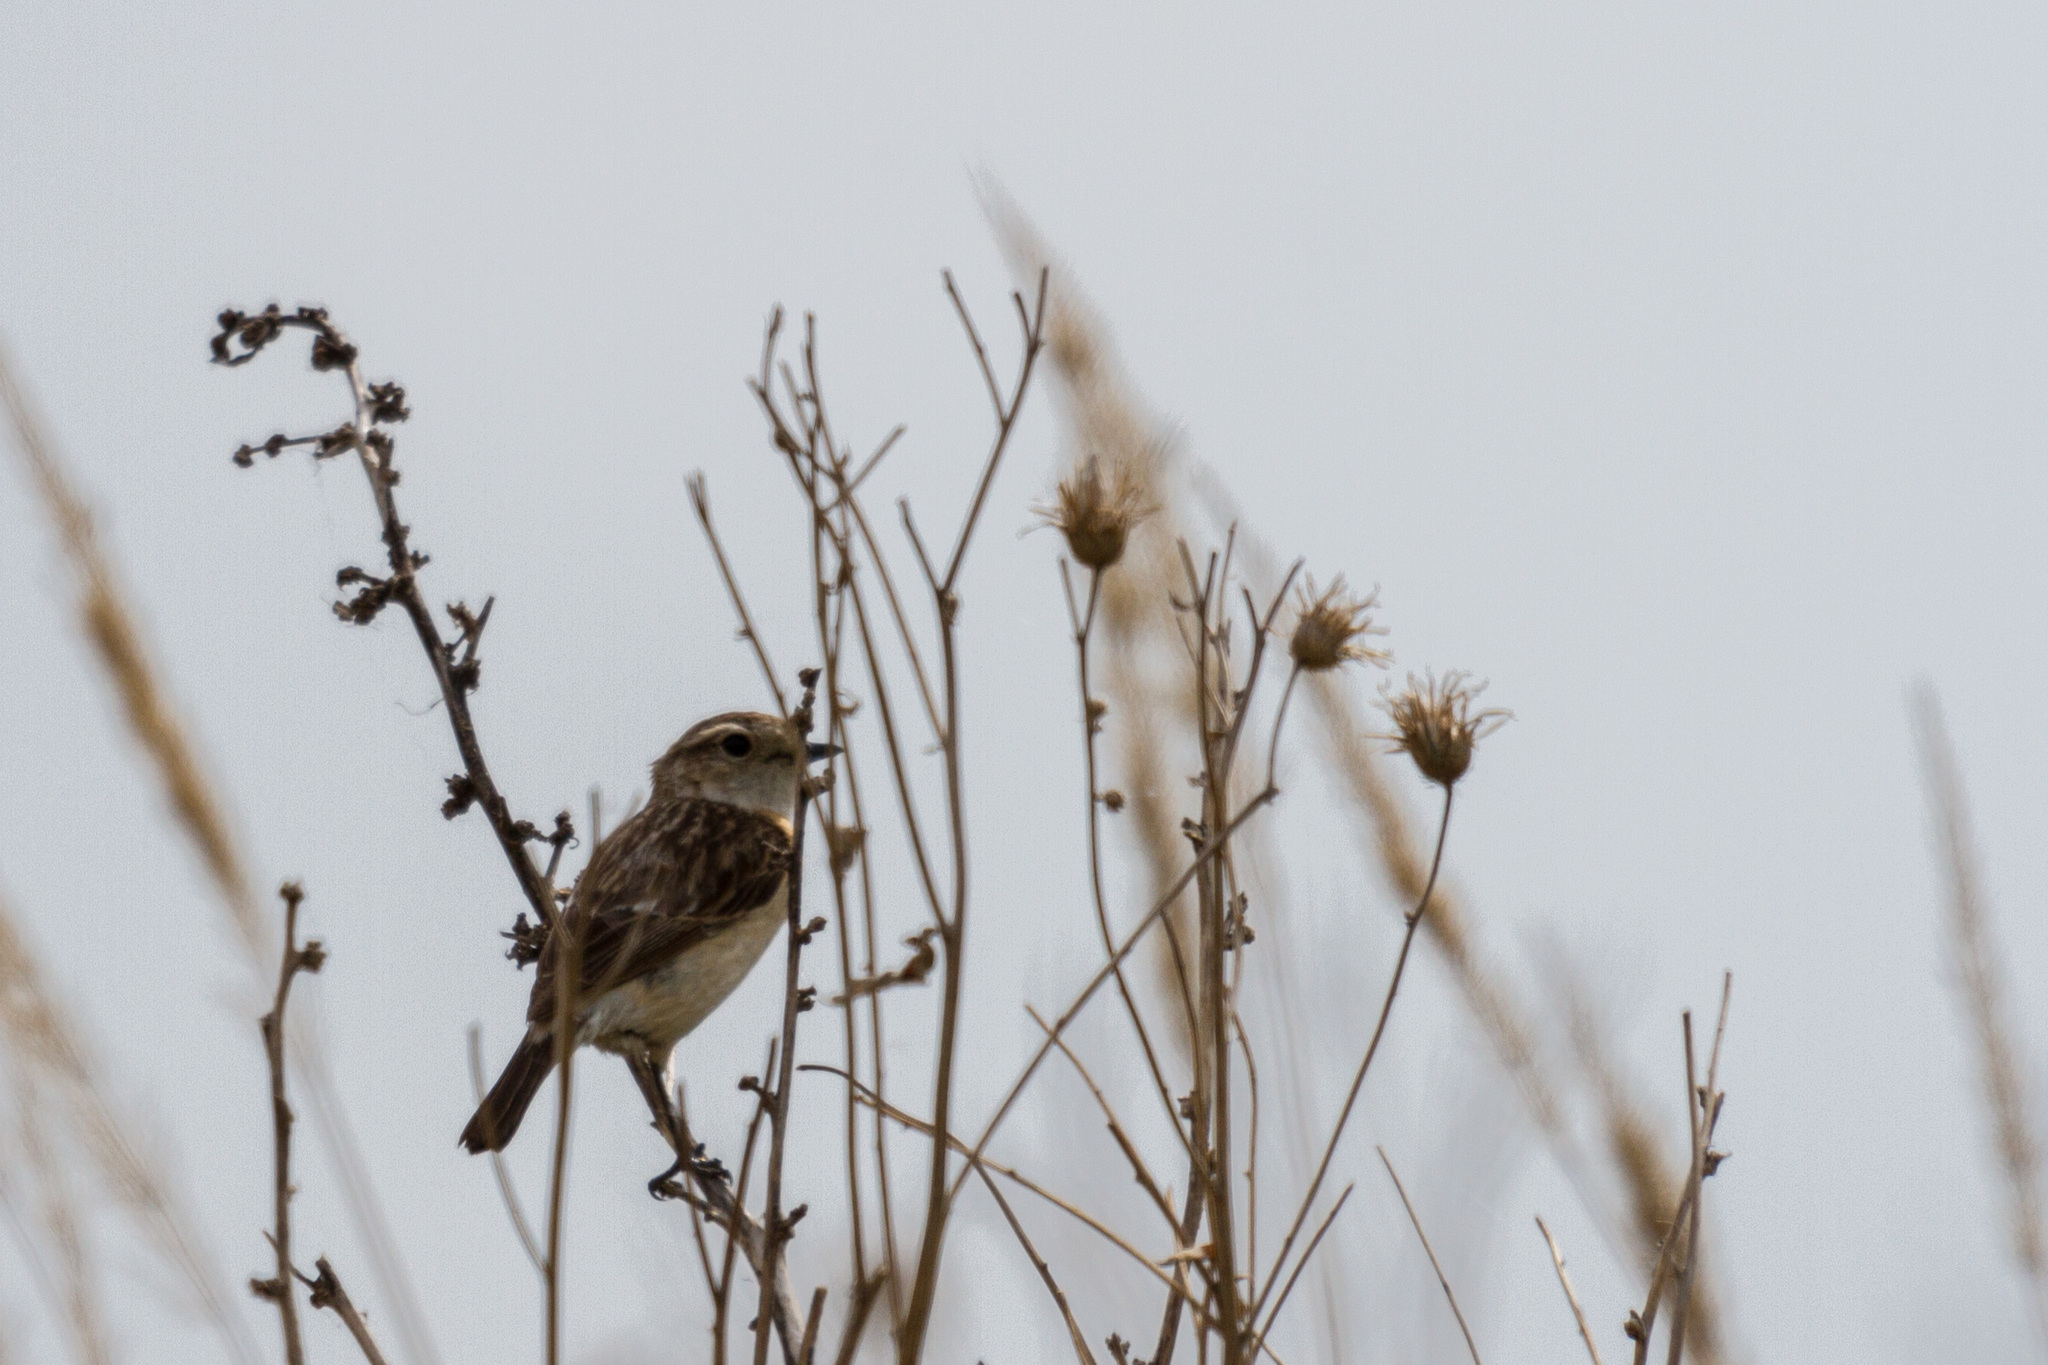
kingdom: Animalia
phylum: Chordata
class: Aves
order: Passeriformes
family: Muscicapidae
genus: Saxicola
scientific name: Saxicola maurus
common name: Siberian stonechat
